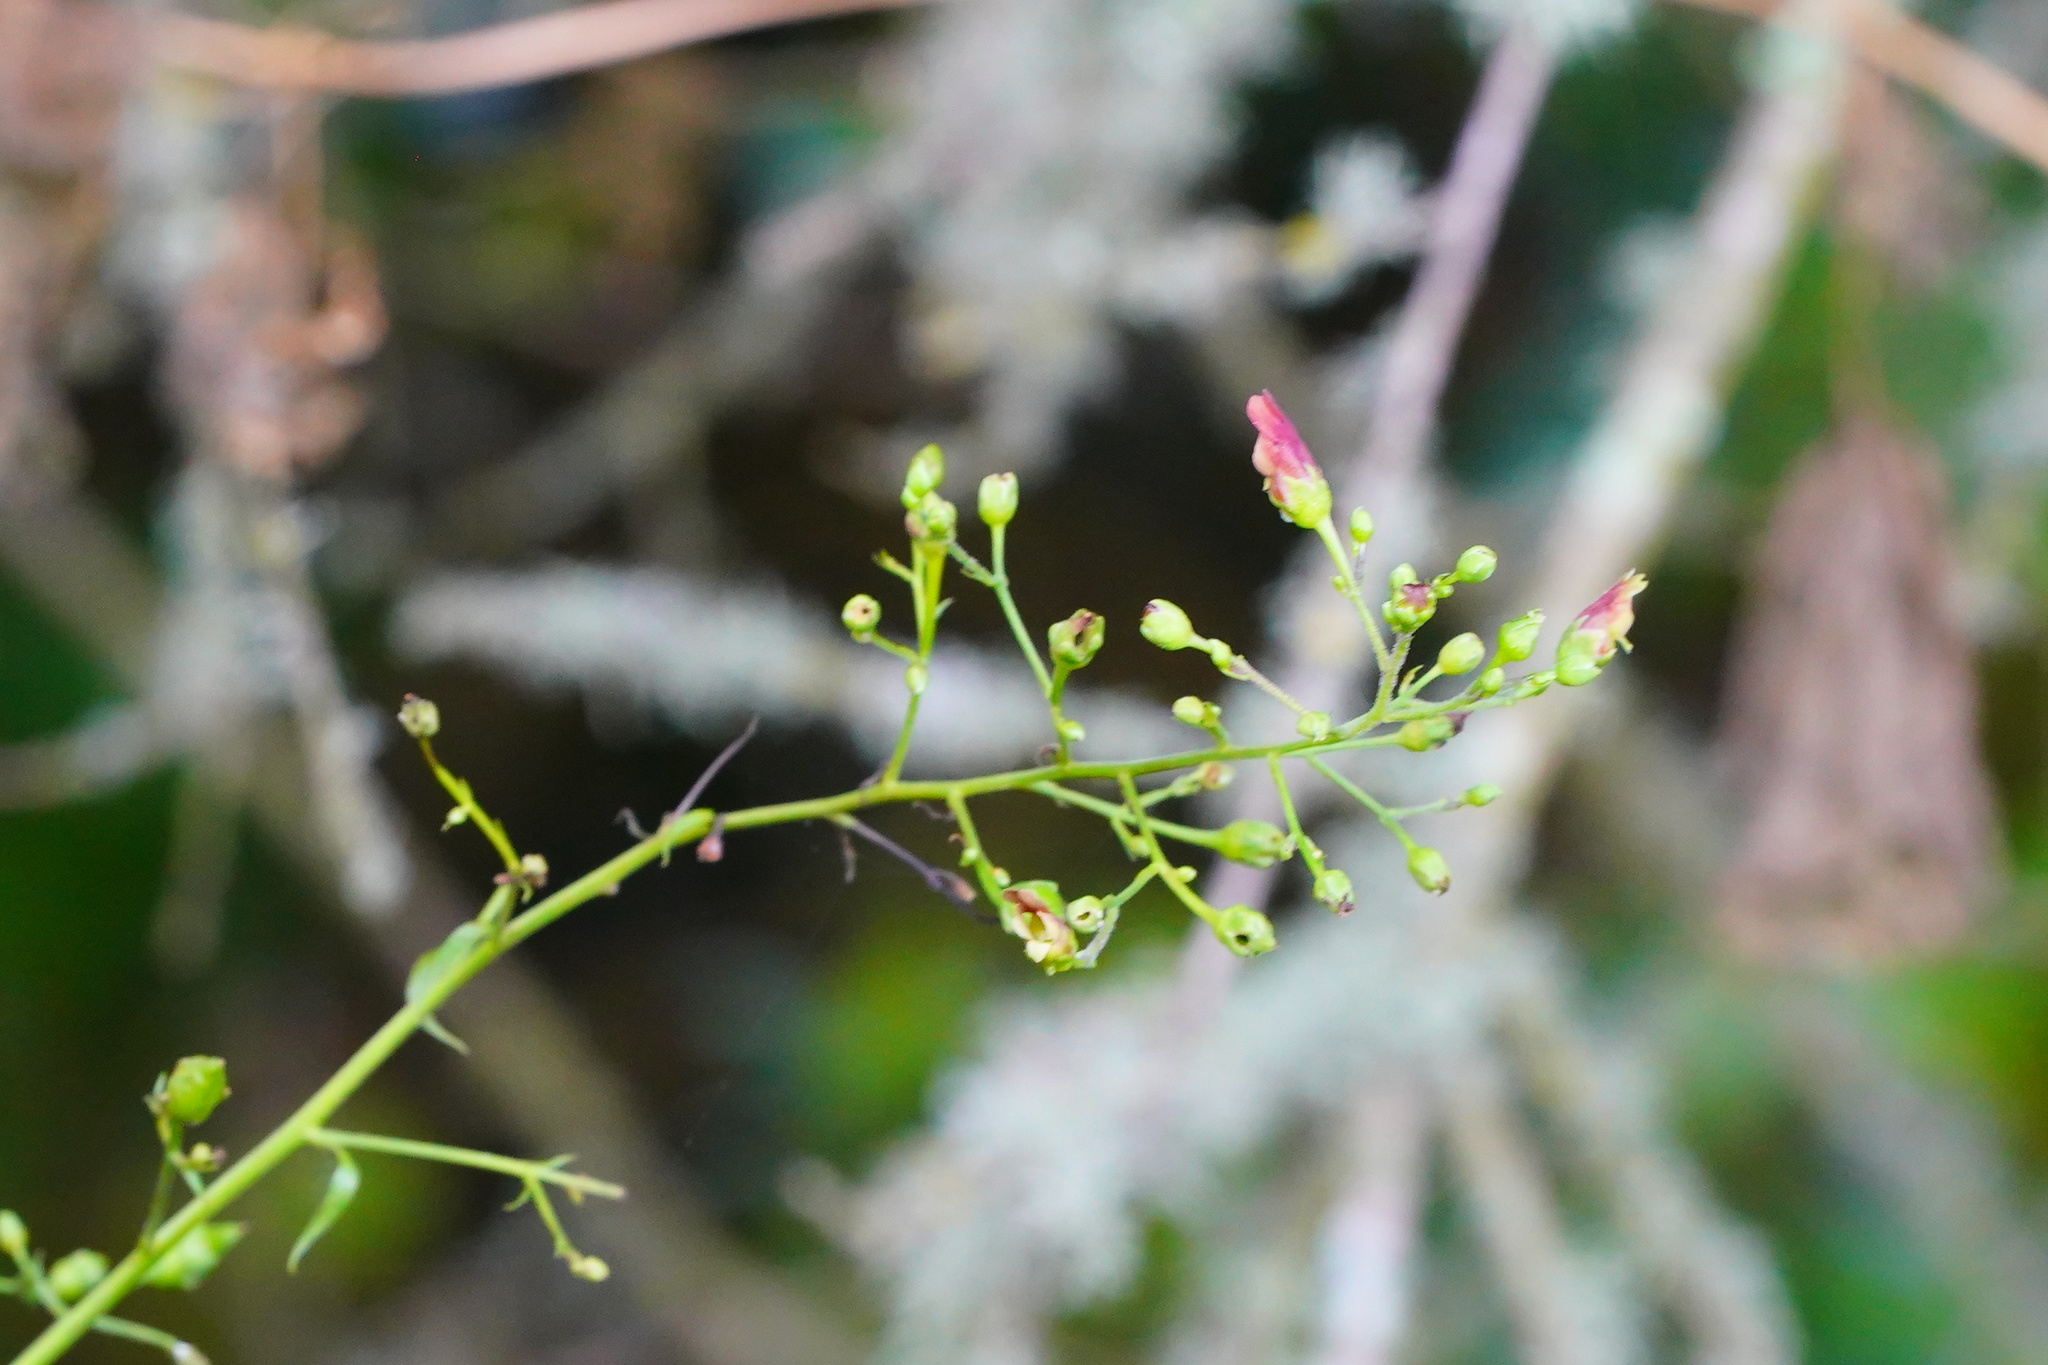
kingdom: Plantae
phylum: Tracheophyta
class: Magnoliopsida
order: Lamiales
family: Scrophulariaceae
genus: Scrophularia
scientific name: Scrophularia californica
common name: California figwort
